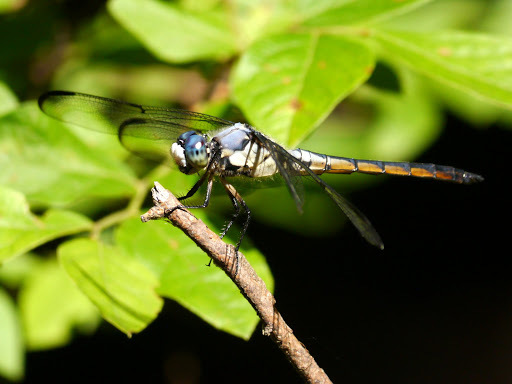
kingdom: Animalia
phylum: Arthropoda
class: Insecta
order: Odonata
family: Libellulidae
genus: Libellula
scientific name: Libellula vibrans
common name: Great blue skimmer
